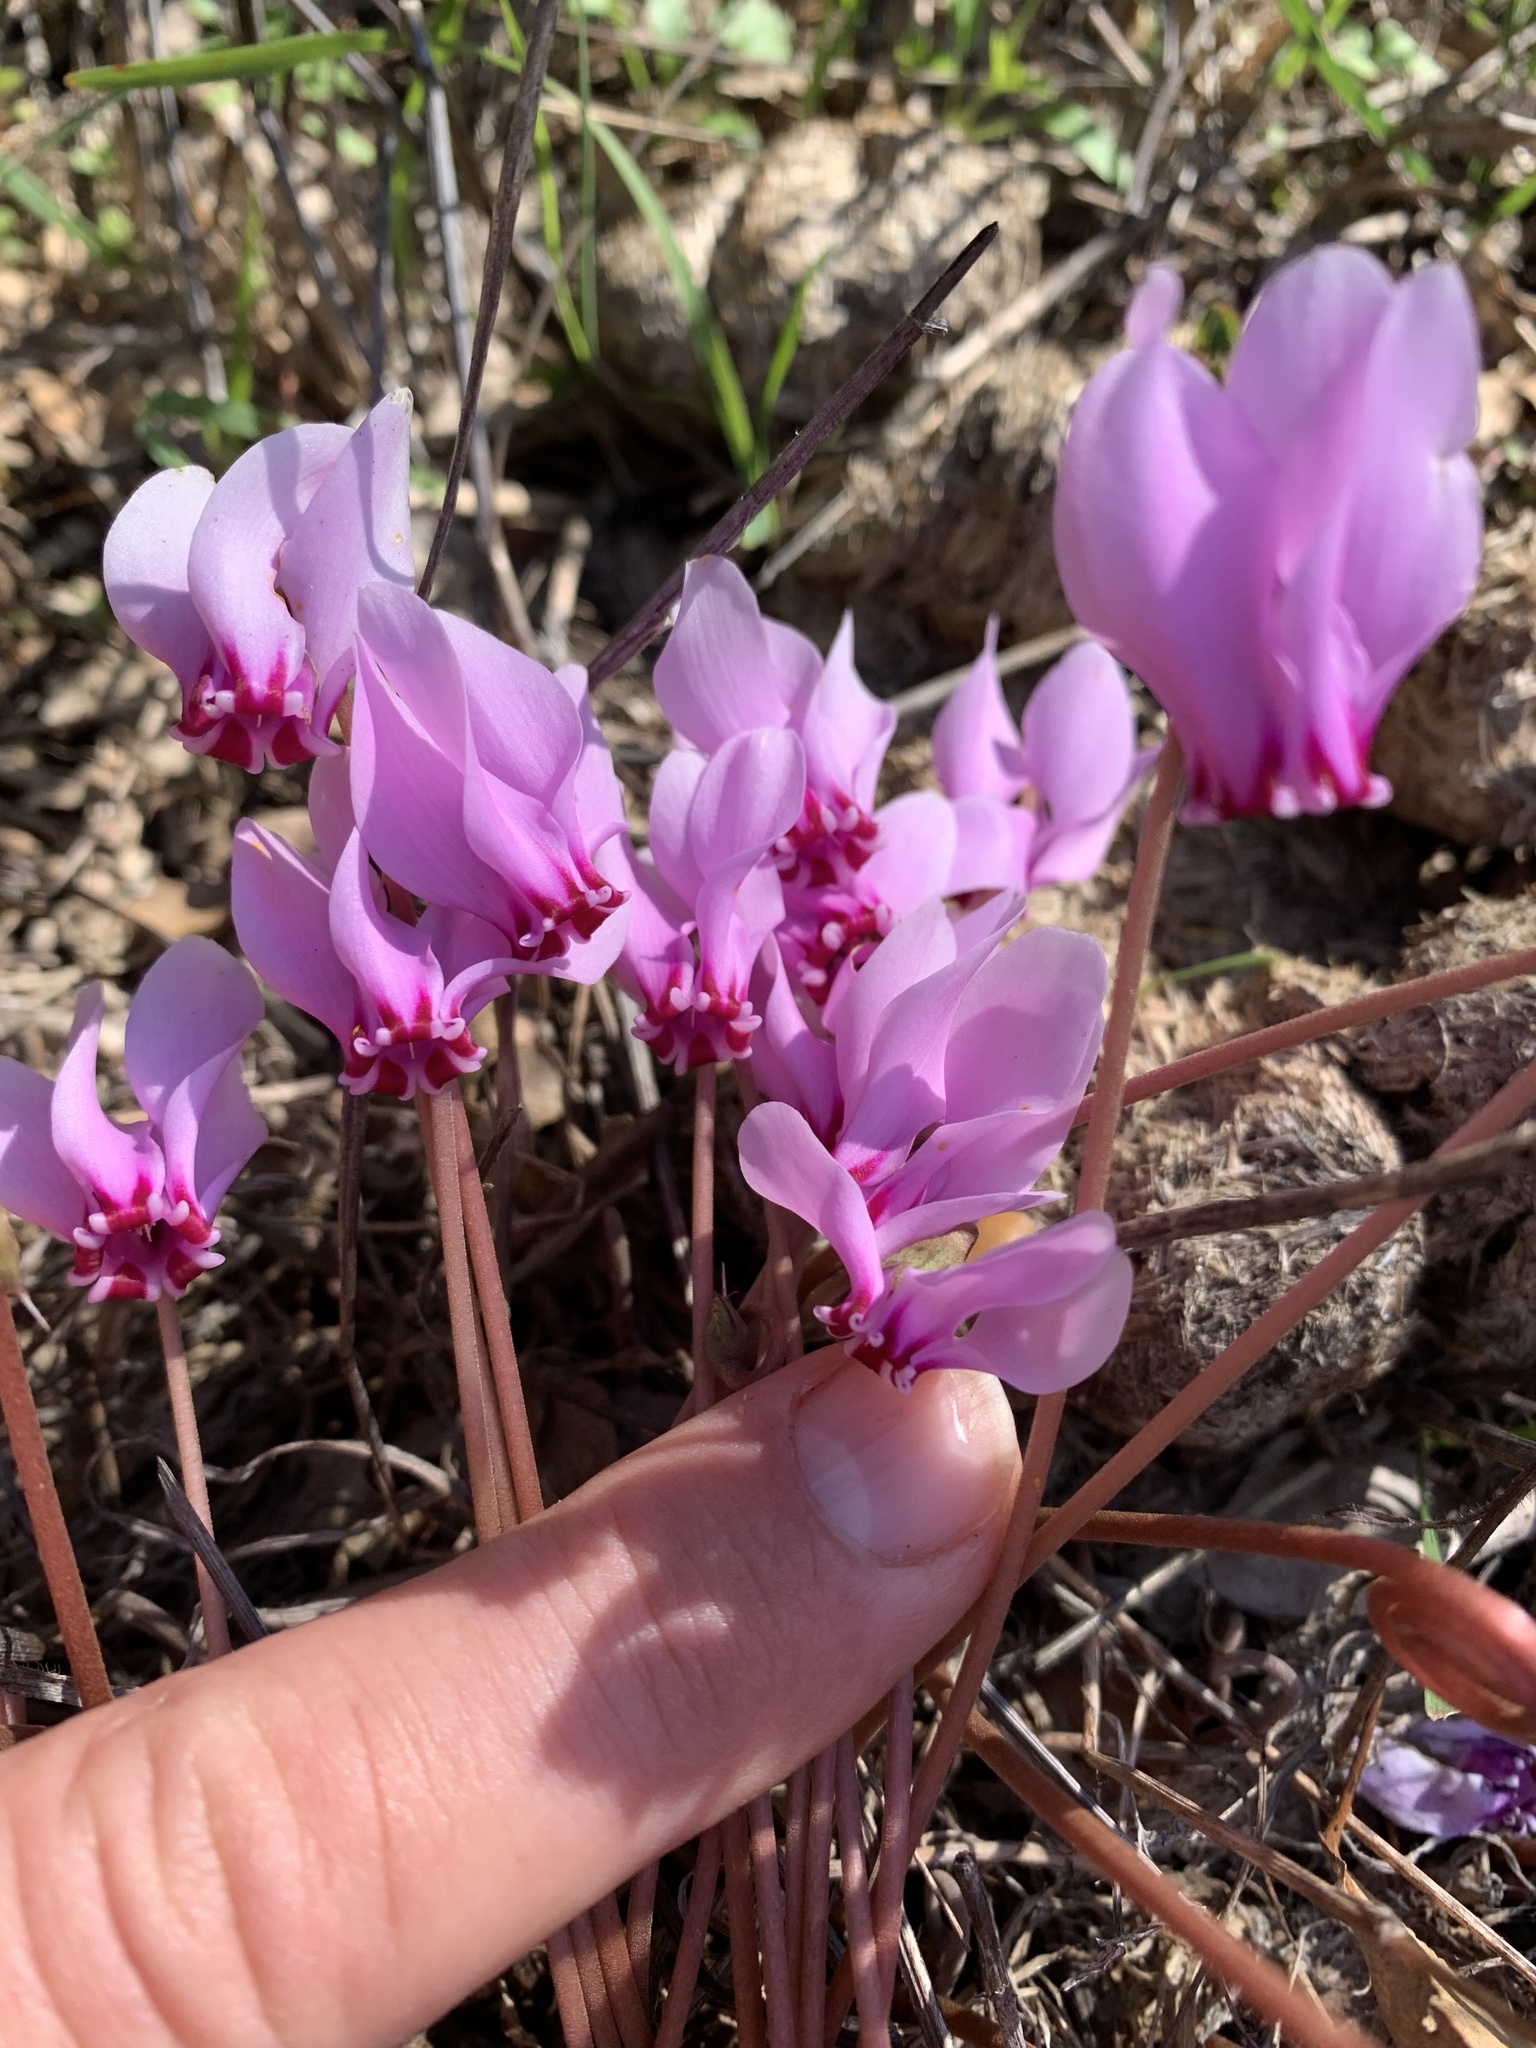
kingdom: Plantae
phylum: Tracheophyta
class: Magnoliopsida
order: Ericales
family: Primulaceae
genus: Cyclamen
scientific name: Cyclamen hederifolium
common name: Sowbread
